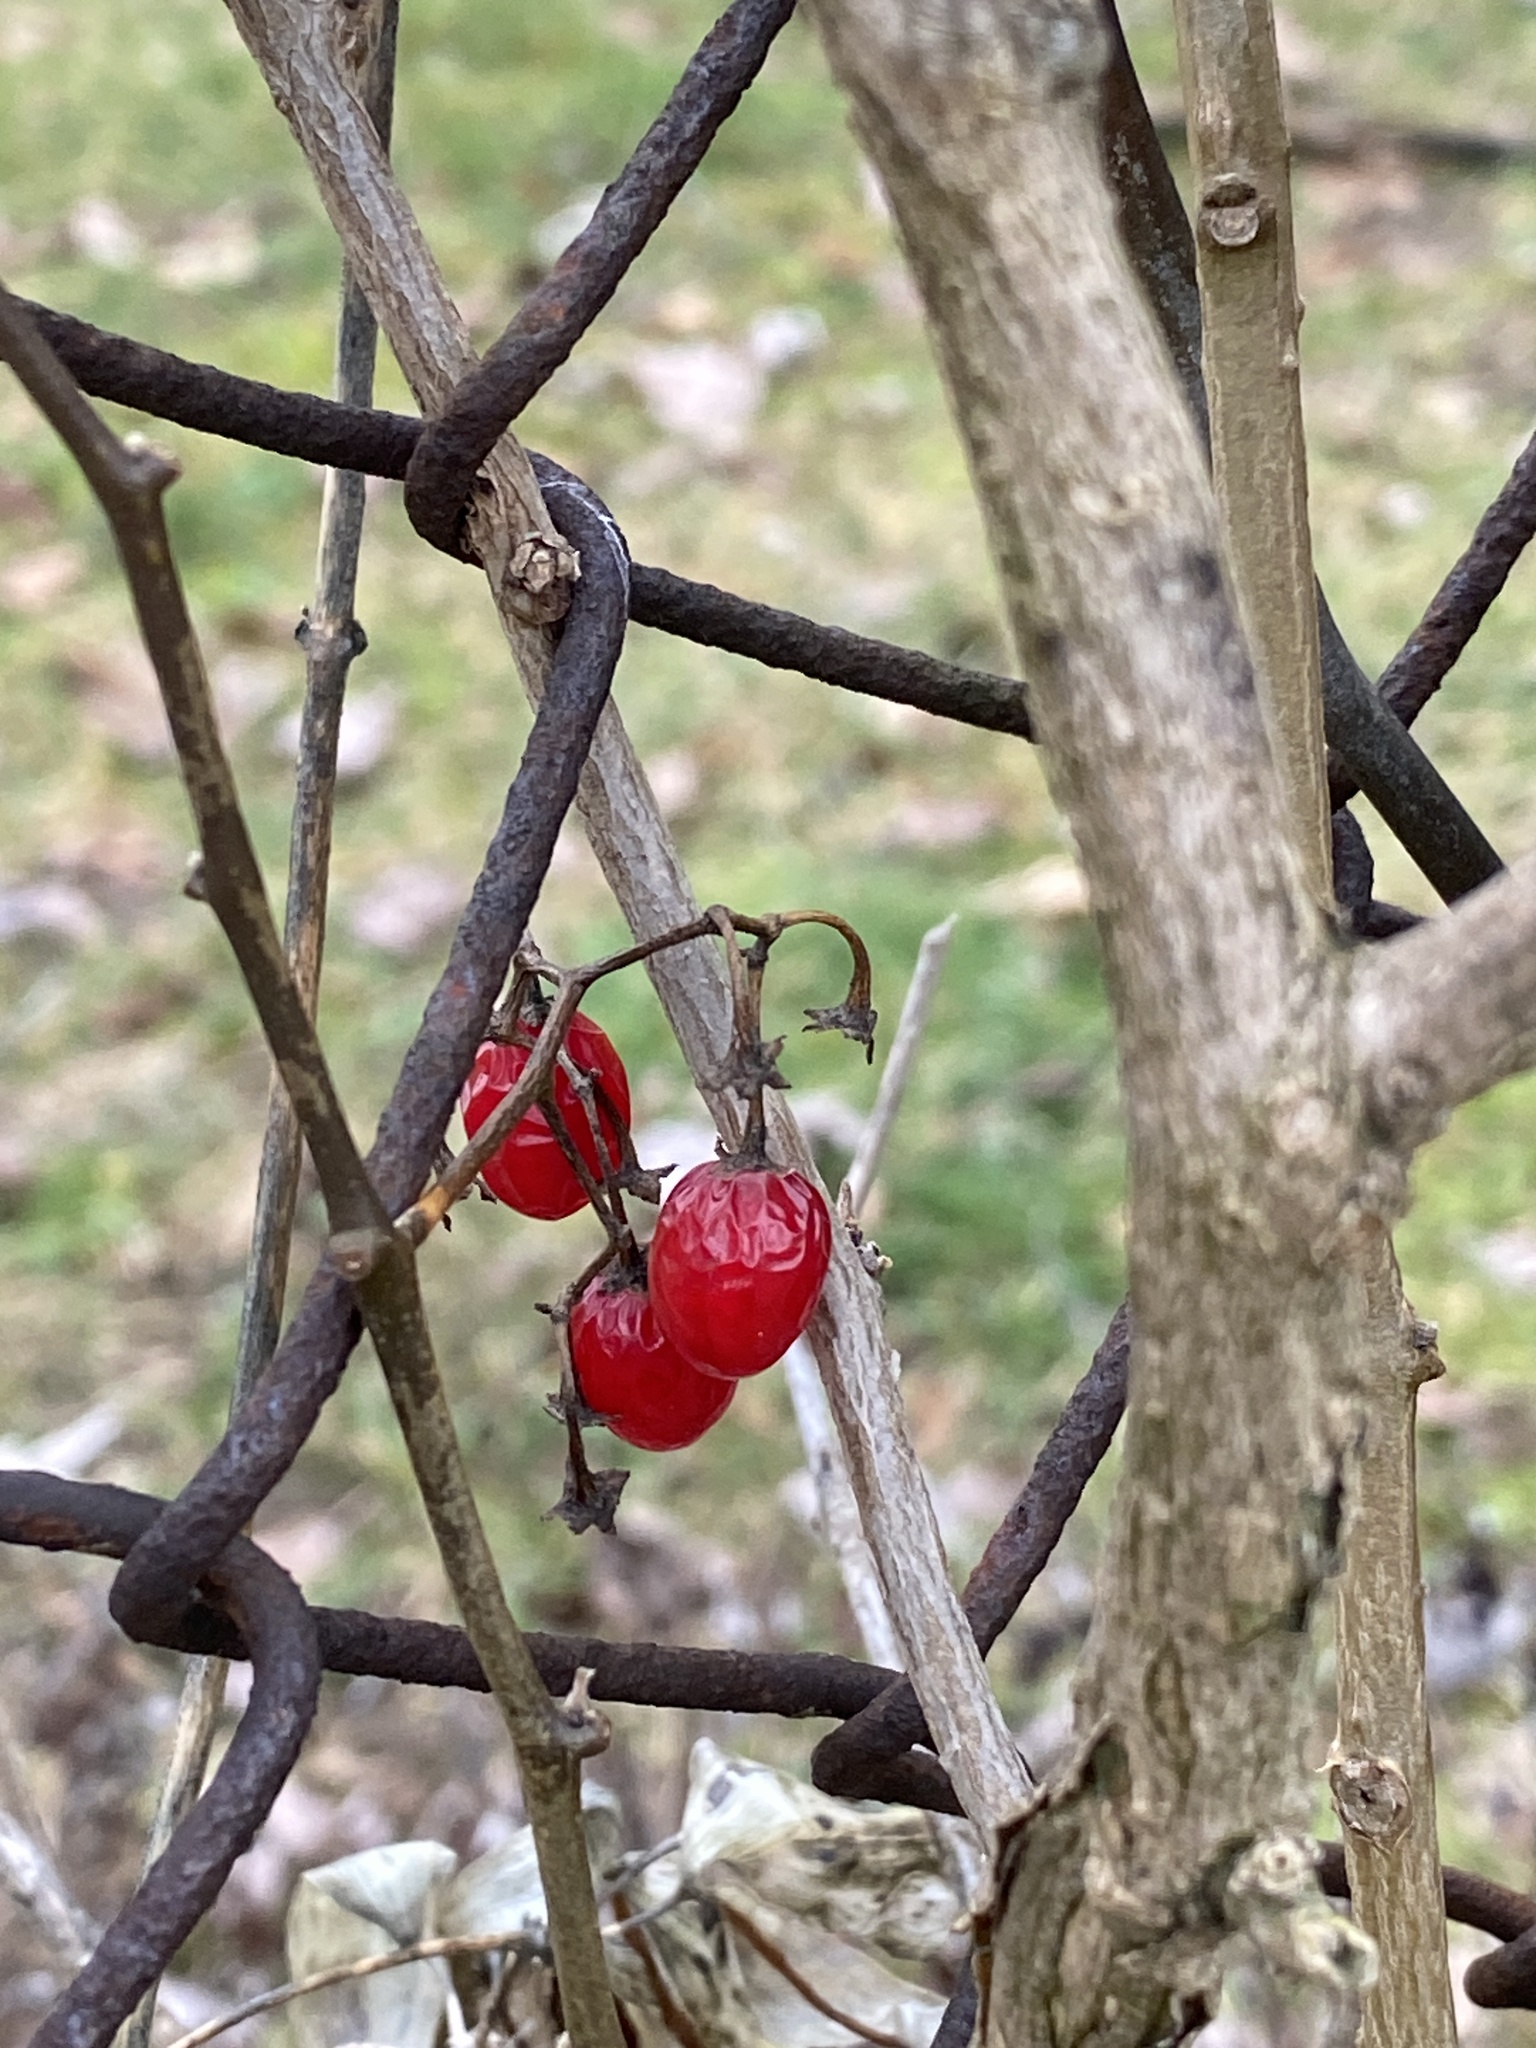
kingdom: Plantae
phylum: Tracheophyta
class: Magnoliopsida
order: Solanales
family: Solanaceae
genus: Solanum
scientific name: Solanum dulcamara
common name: Climbing nightshade
